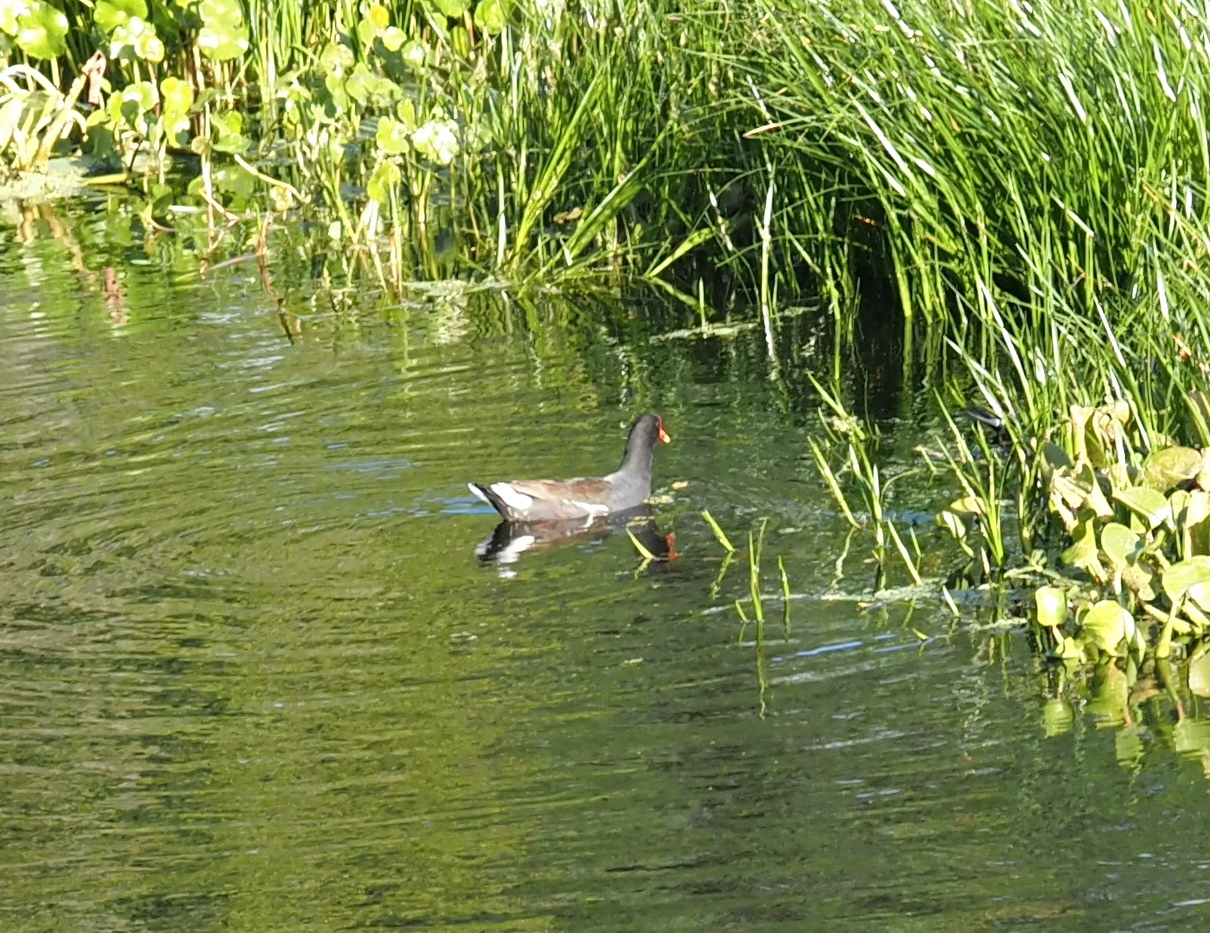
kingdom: Animalia
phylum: Chordata
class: Aves
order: Gruiformes
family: Rallidae
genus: Gallinula
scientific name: Gallinula chloropus
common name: Common moorhen
